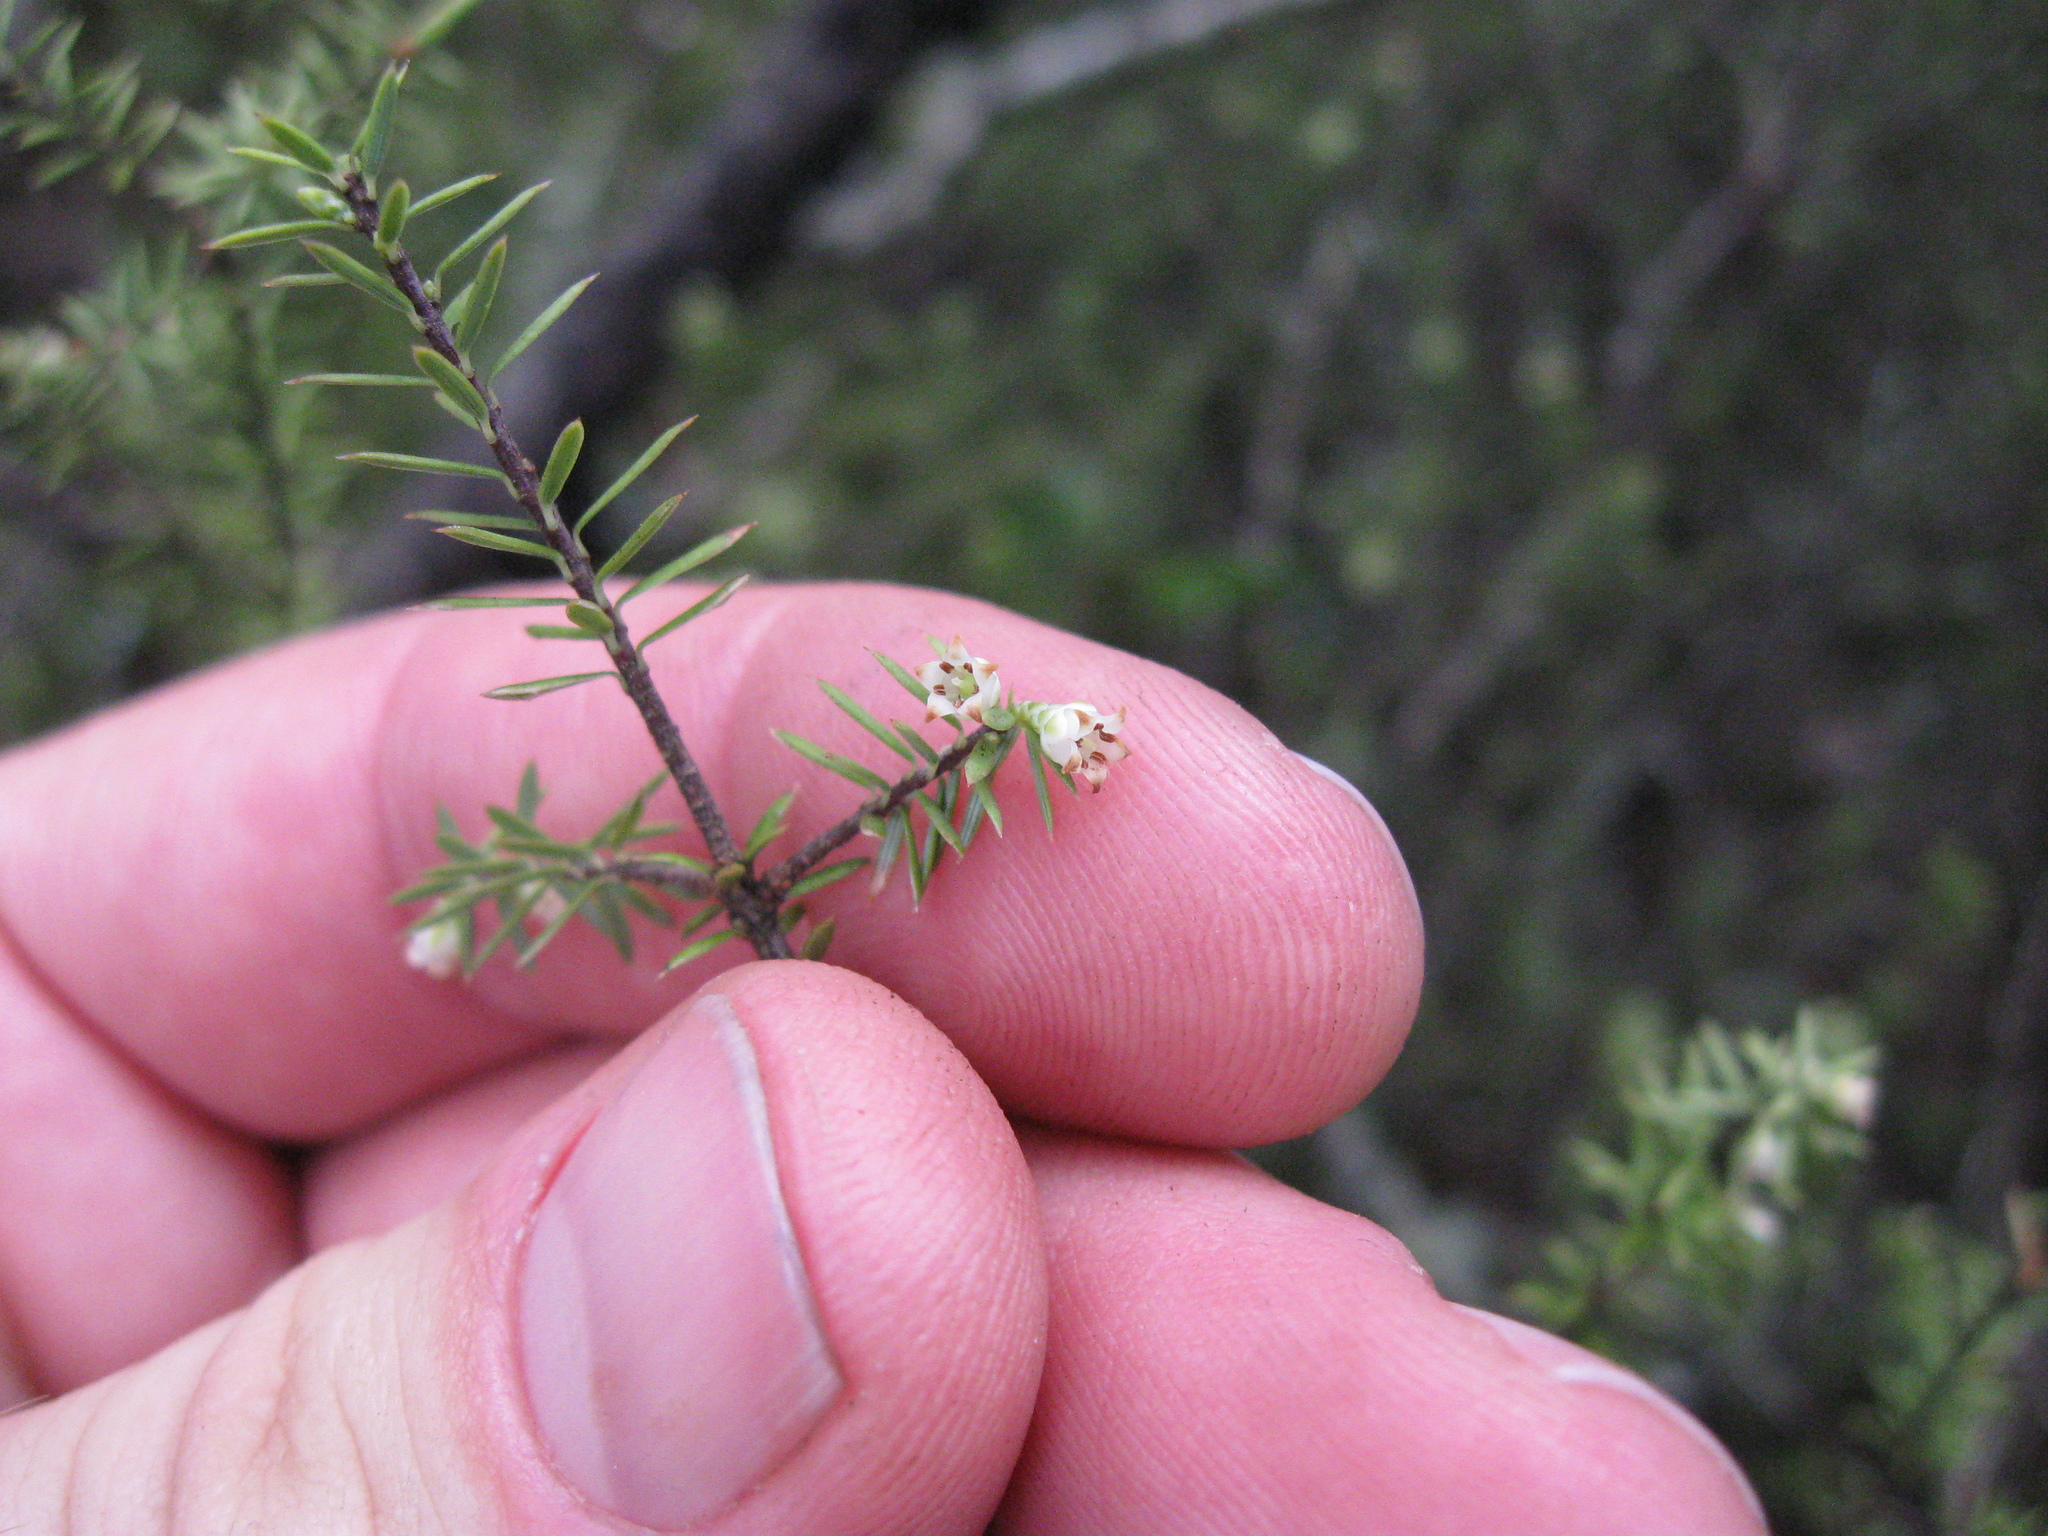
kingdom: Plantae
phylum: Tracheophyta
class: Magnoliopsida
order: Ericales
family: Ericaceae
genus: Leptecophylla
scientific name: Leptecophylla juniperina
